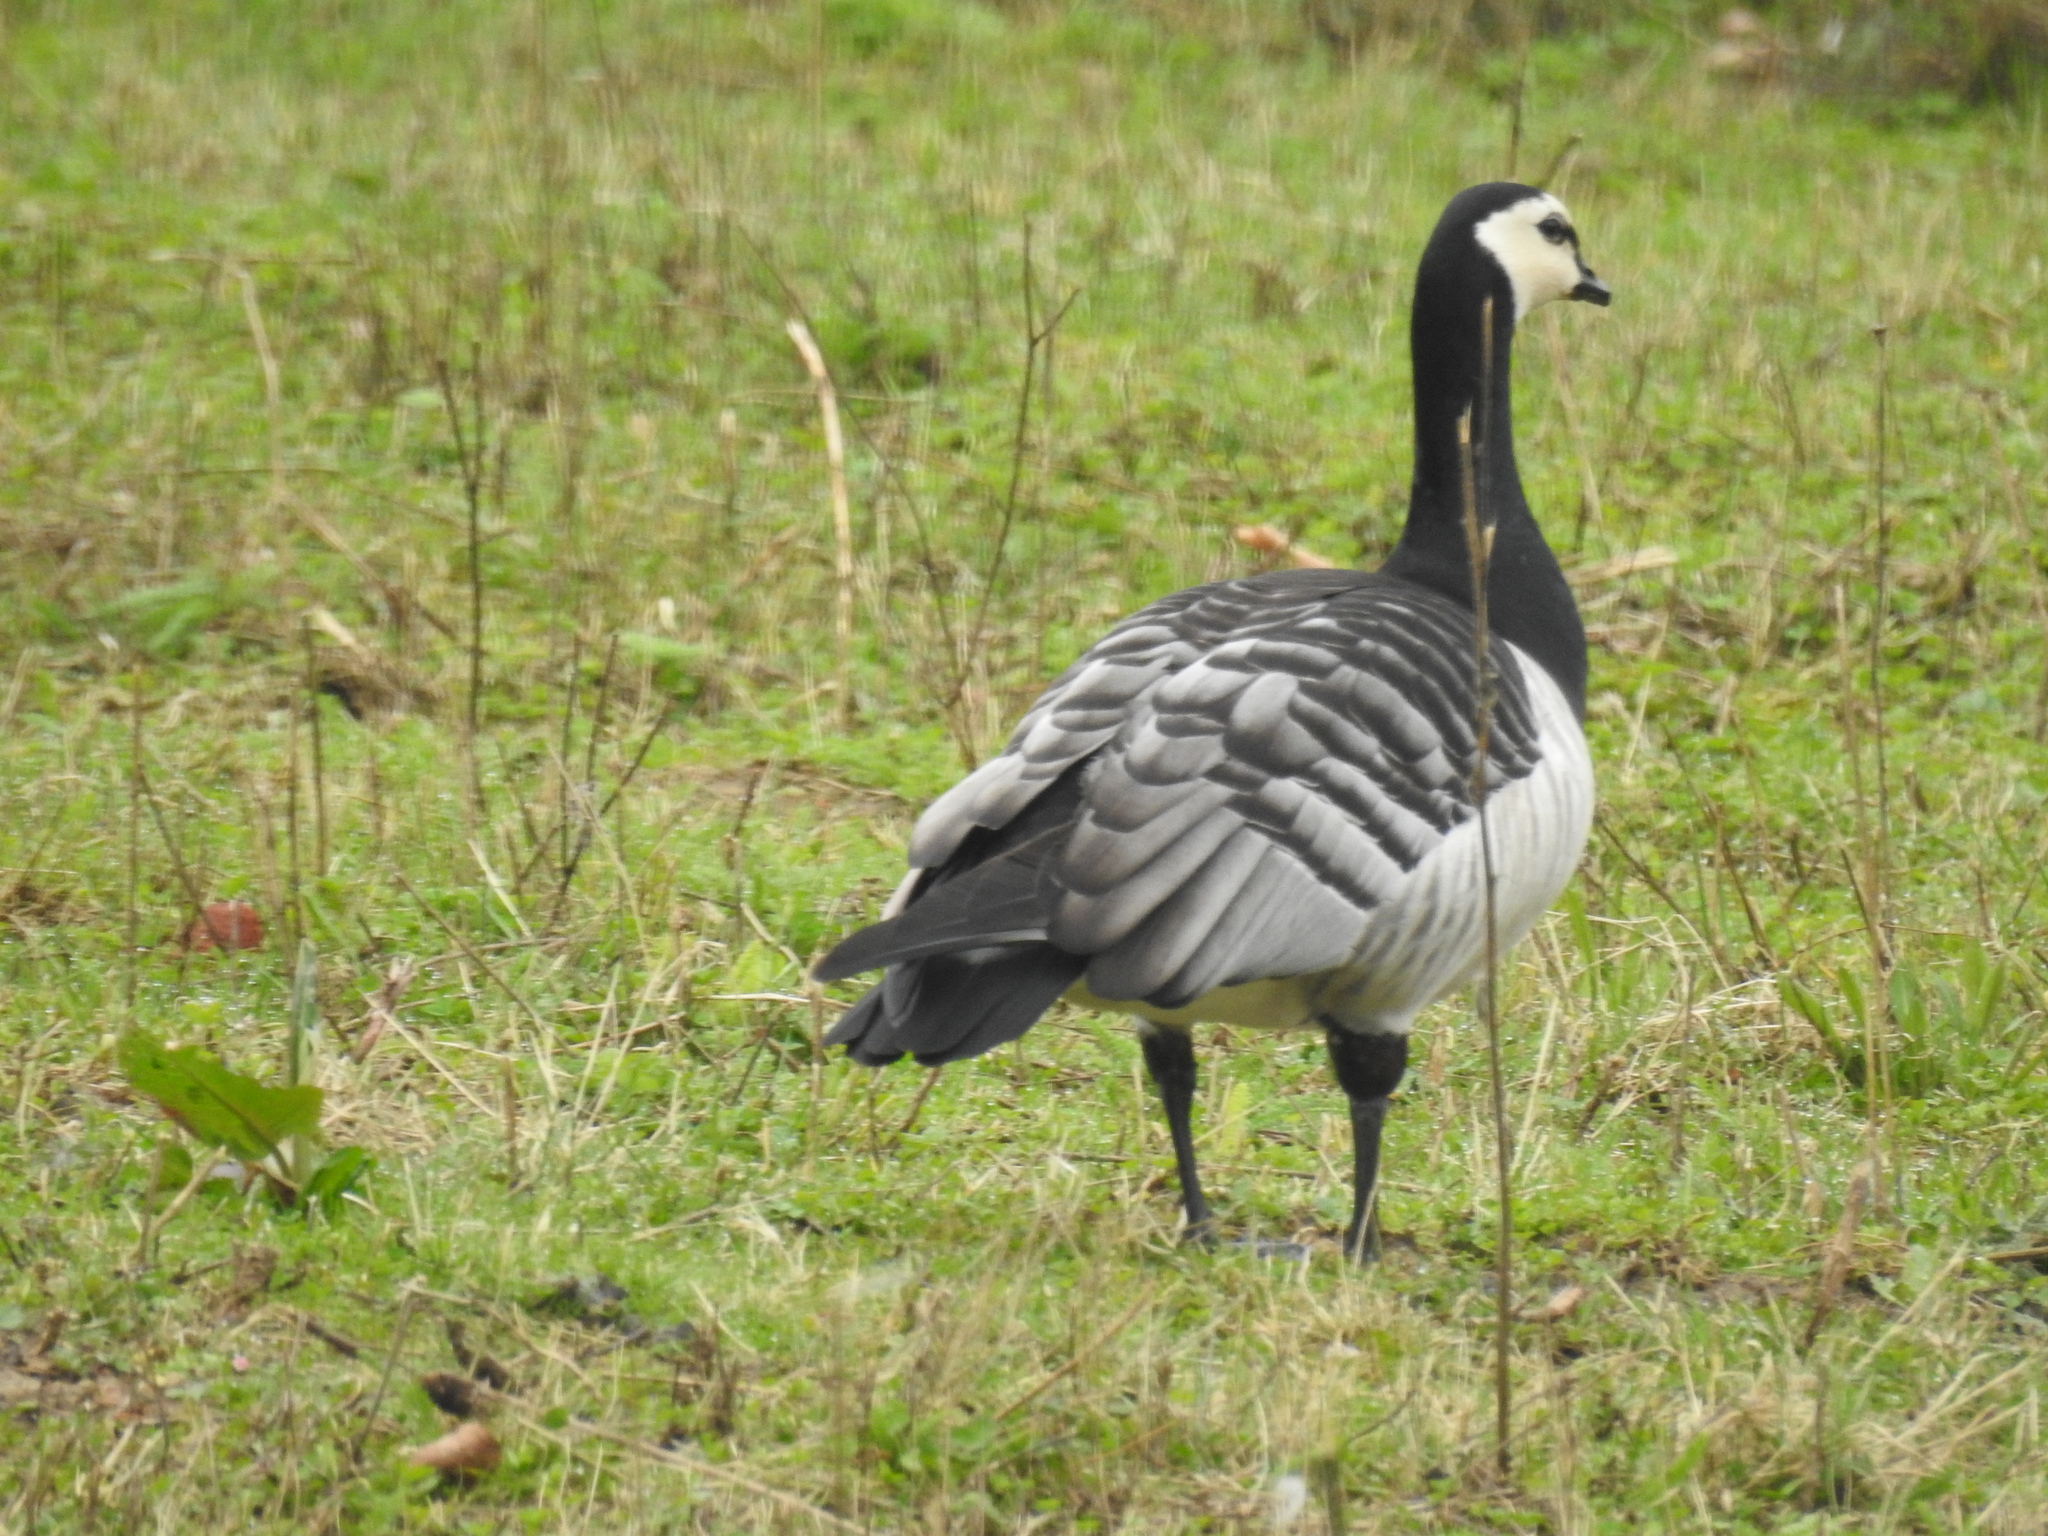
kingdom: Animalia
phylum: Chordata
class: Aves
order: Anseriformes
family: Anatidae
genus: Branta
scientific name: Branta leucopsis
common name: Barnacle goose
